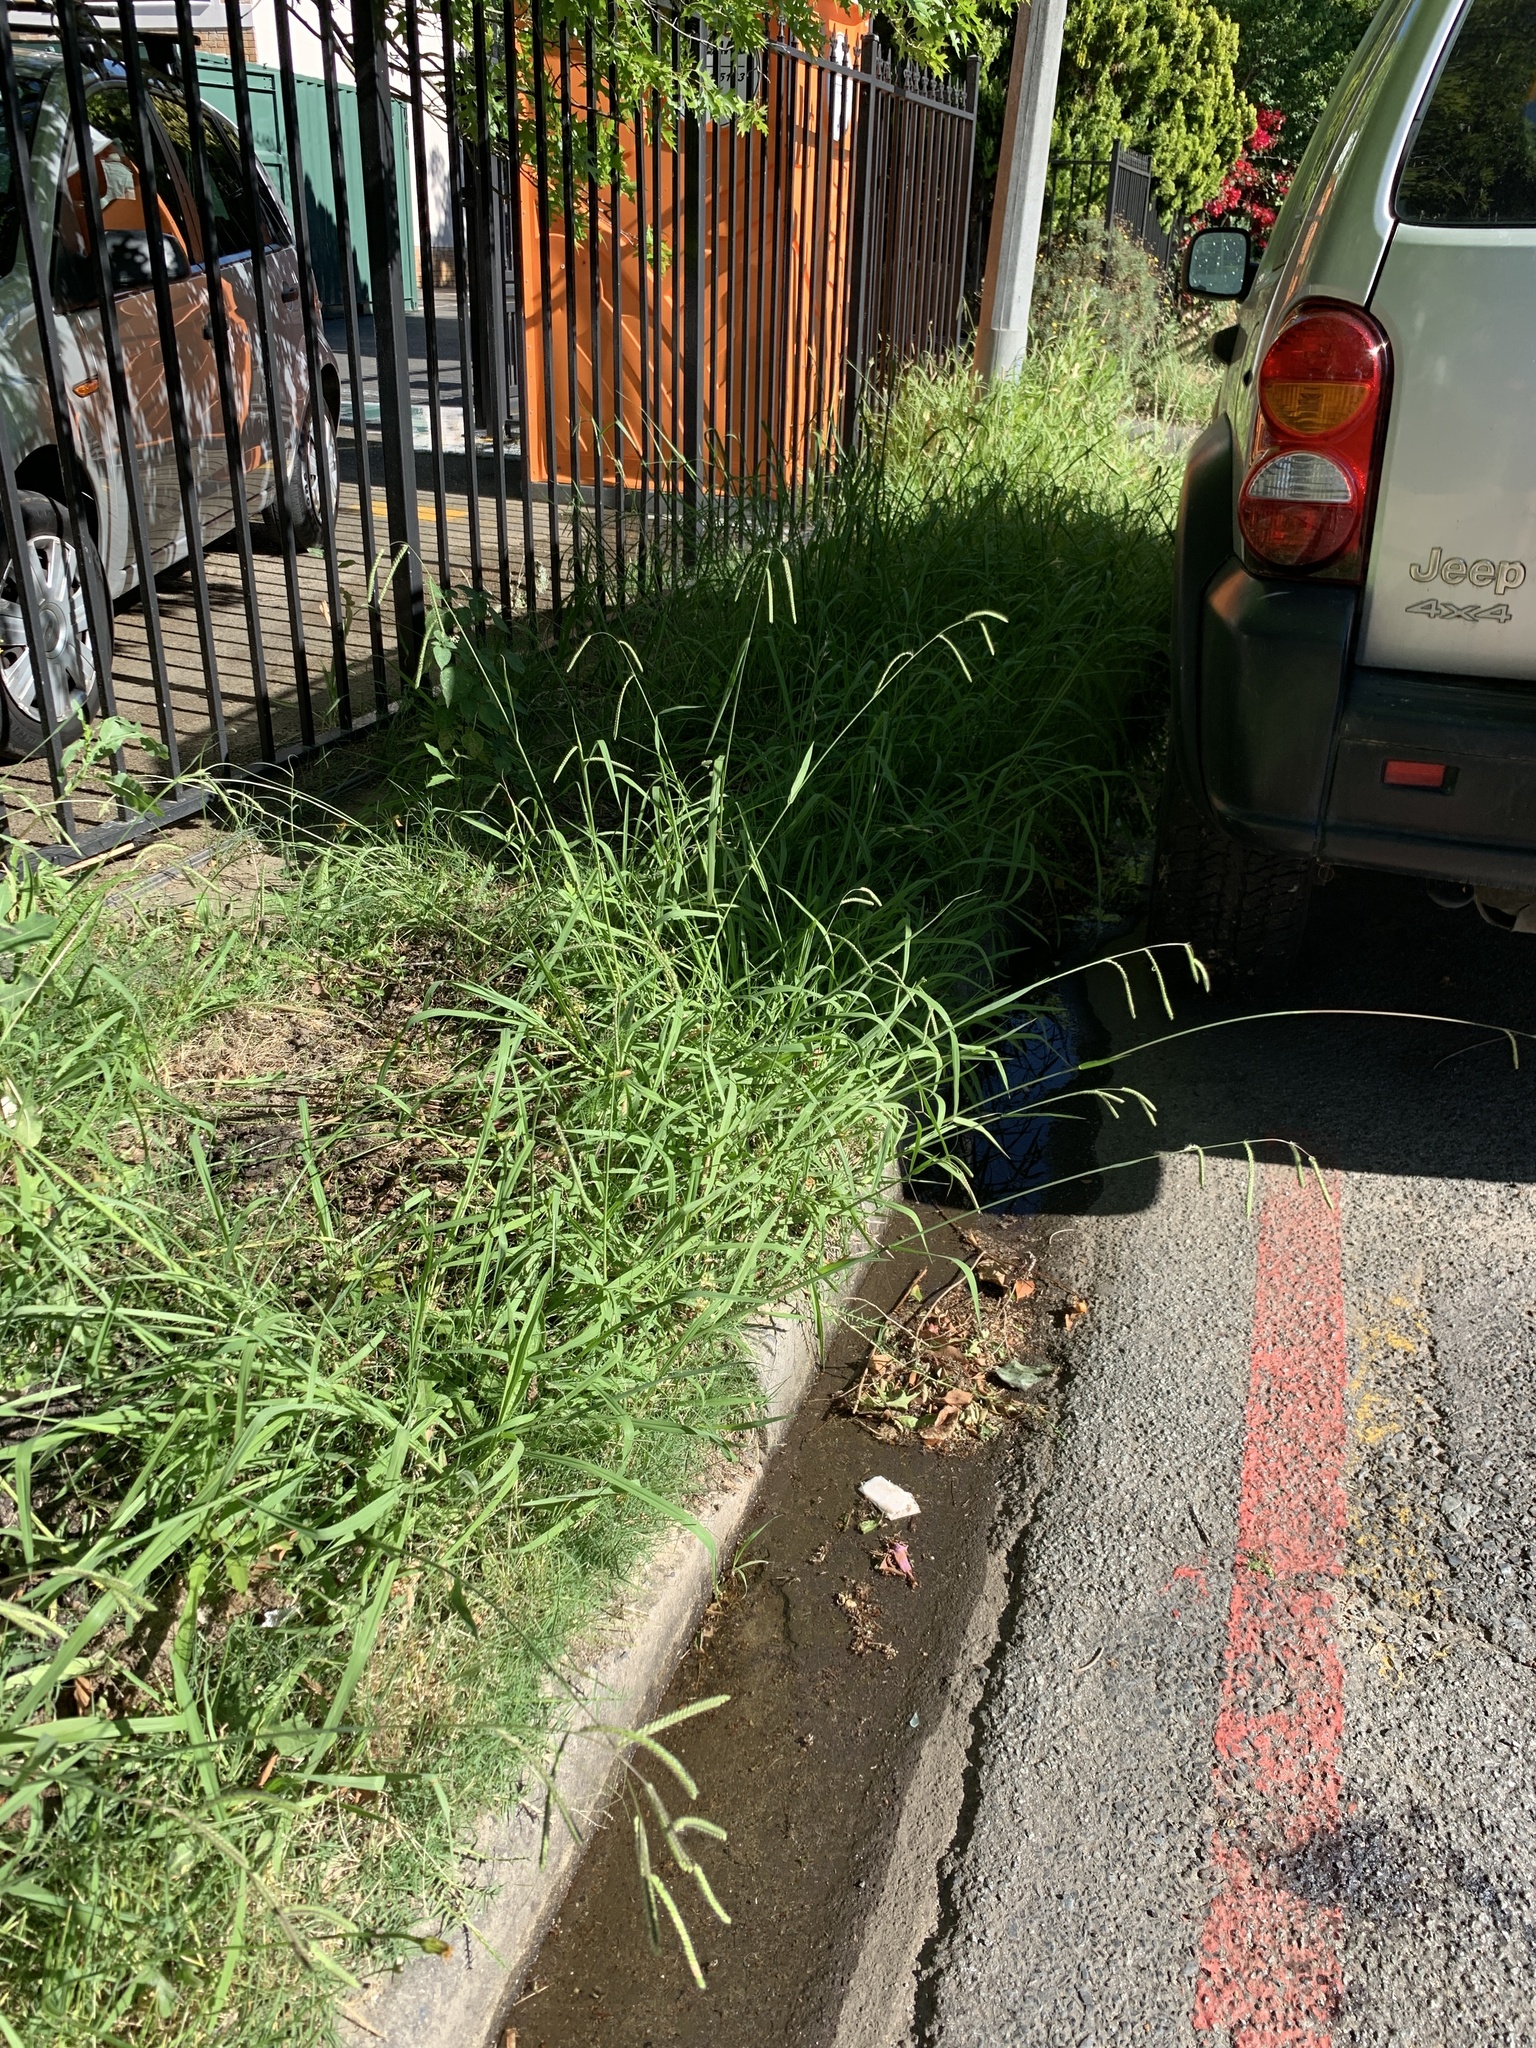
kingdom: Plantae
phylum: Tracheophyta
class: Liliopsida
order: Poales
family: Poaceae
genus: Paspalum
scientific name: Paspalum urvillei
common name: Vasey's grass
